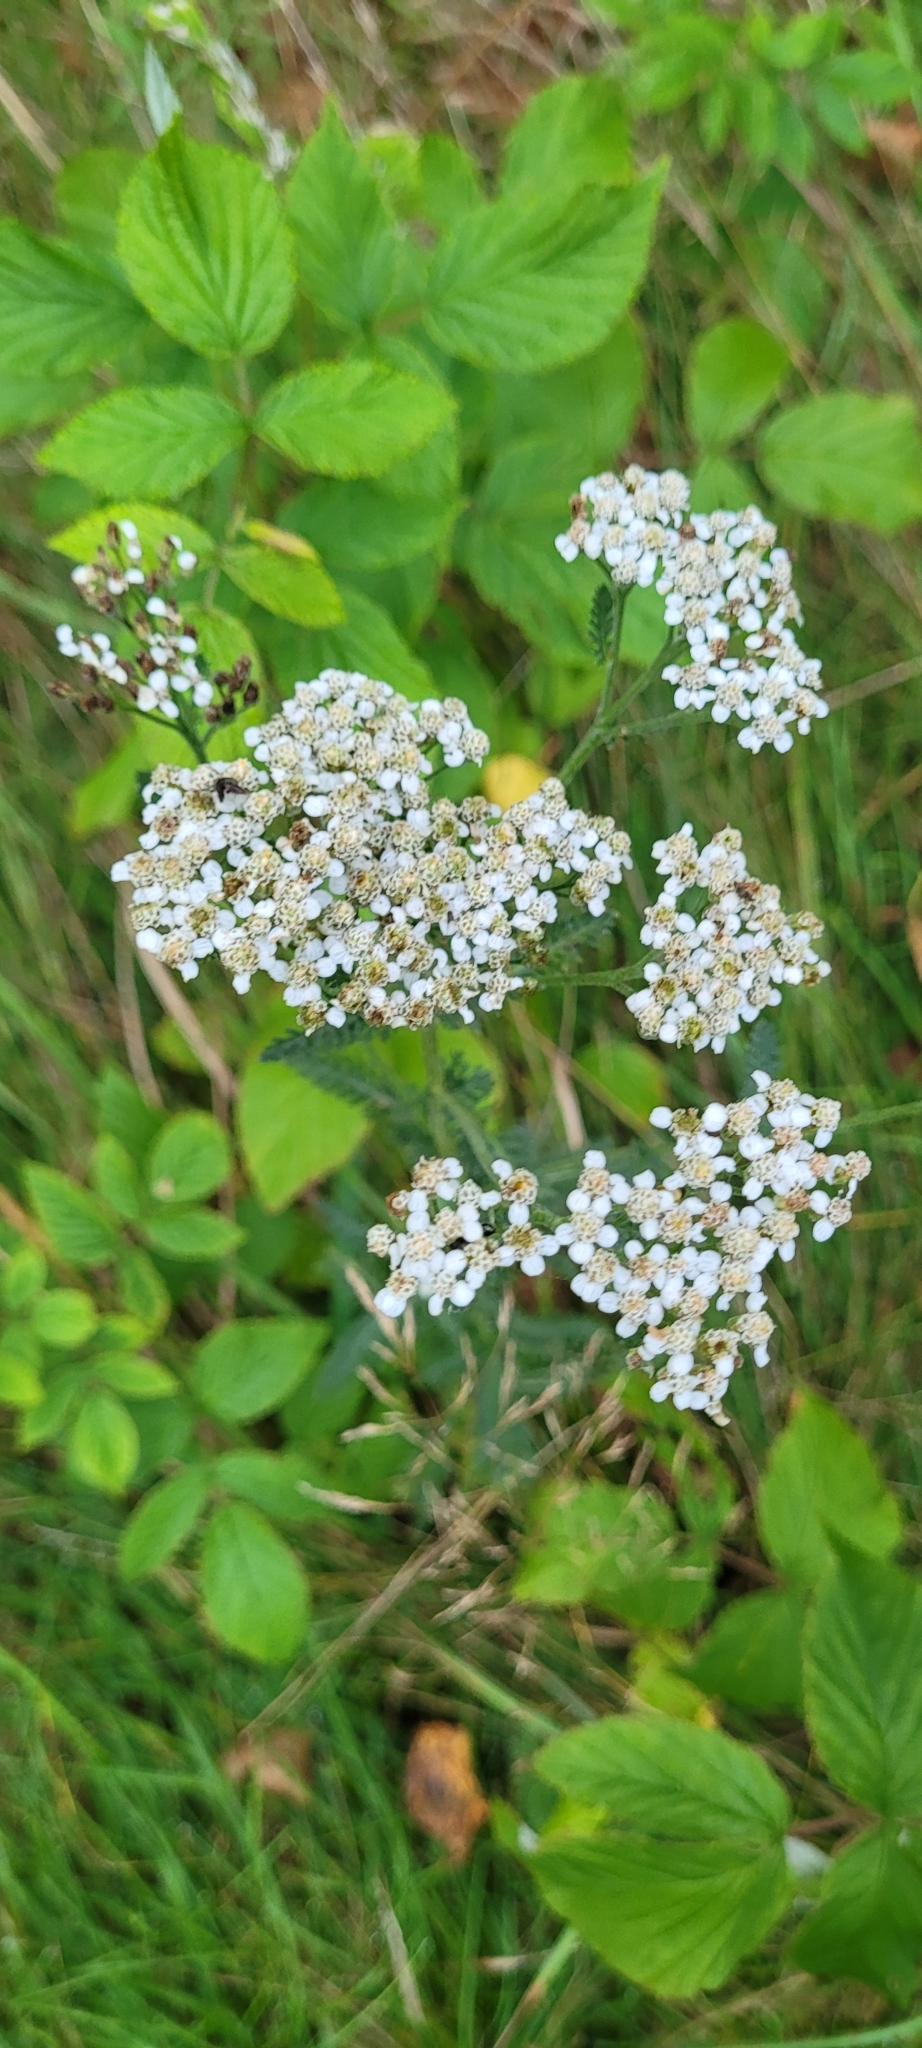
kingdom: Plantae
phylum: Tracheophyta
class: Magnoliopsida
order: Asterales
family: Asteraceae
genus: Achillea
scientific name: Achillea millefolium
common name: Yarrow
